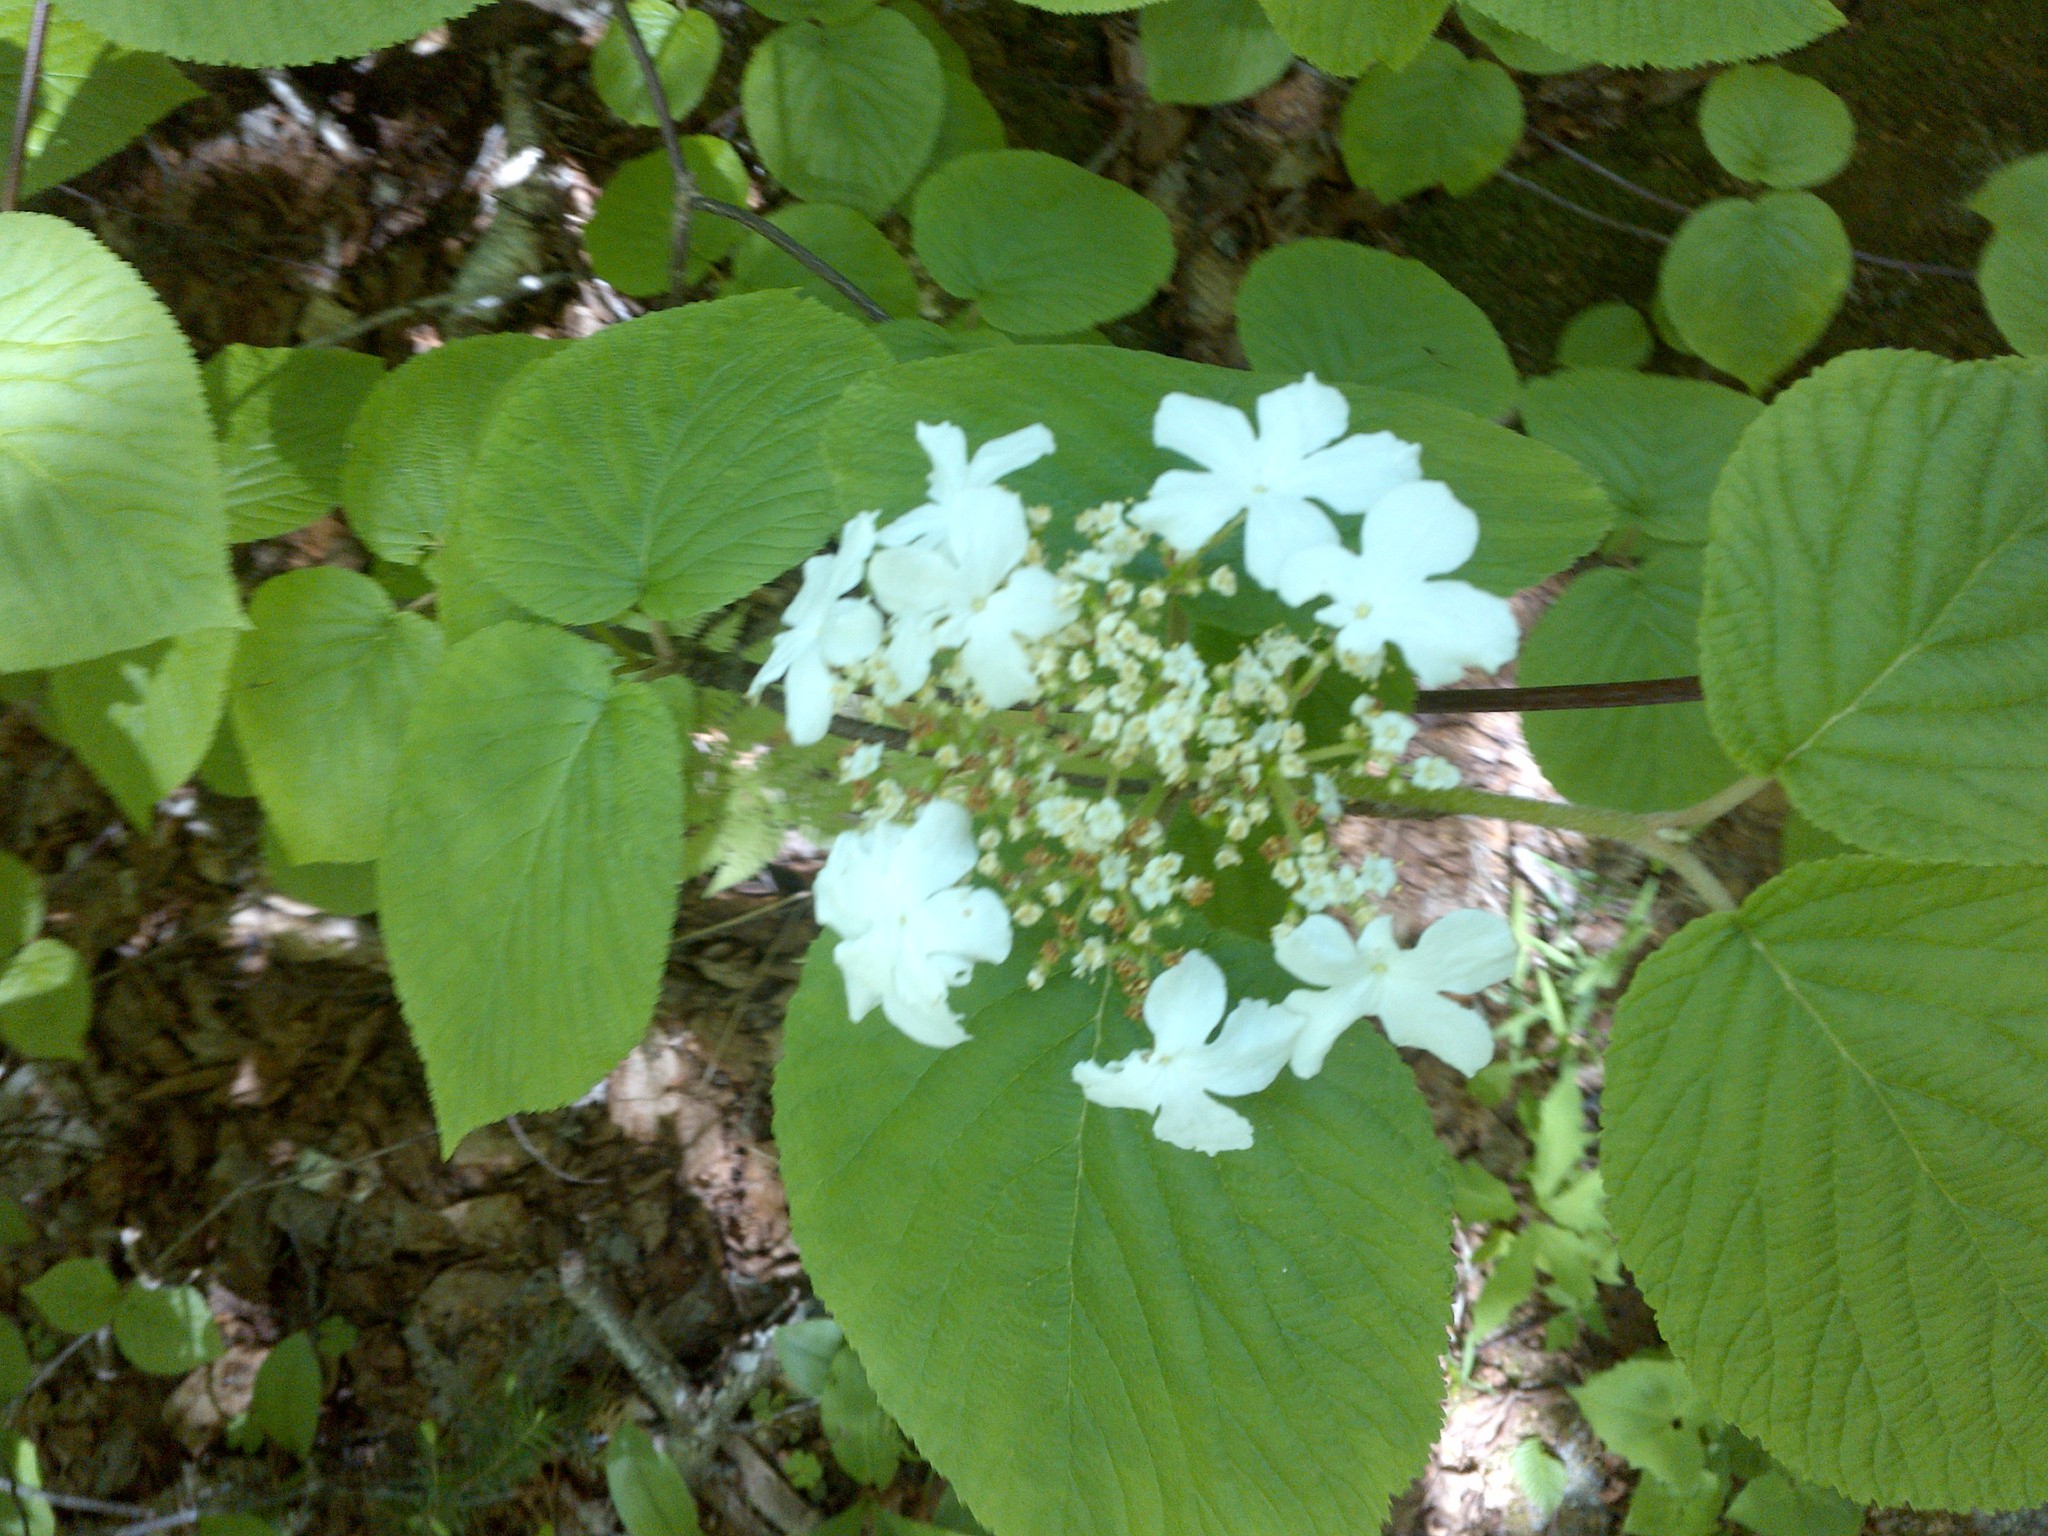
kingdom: Plantae
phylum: Tracheophyta
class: Magnoliopsida
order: Dipsacales
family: Viburnaceae
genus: Viburnum
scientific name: Viburnum lantanoides
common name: Hobblebush
